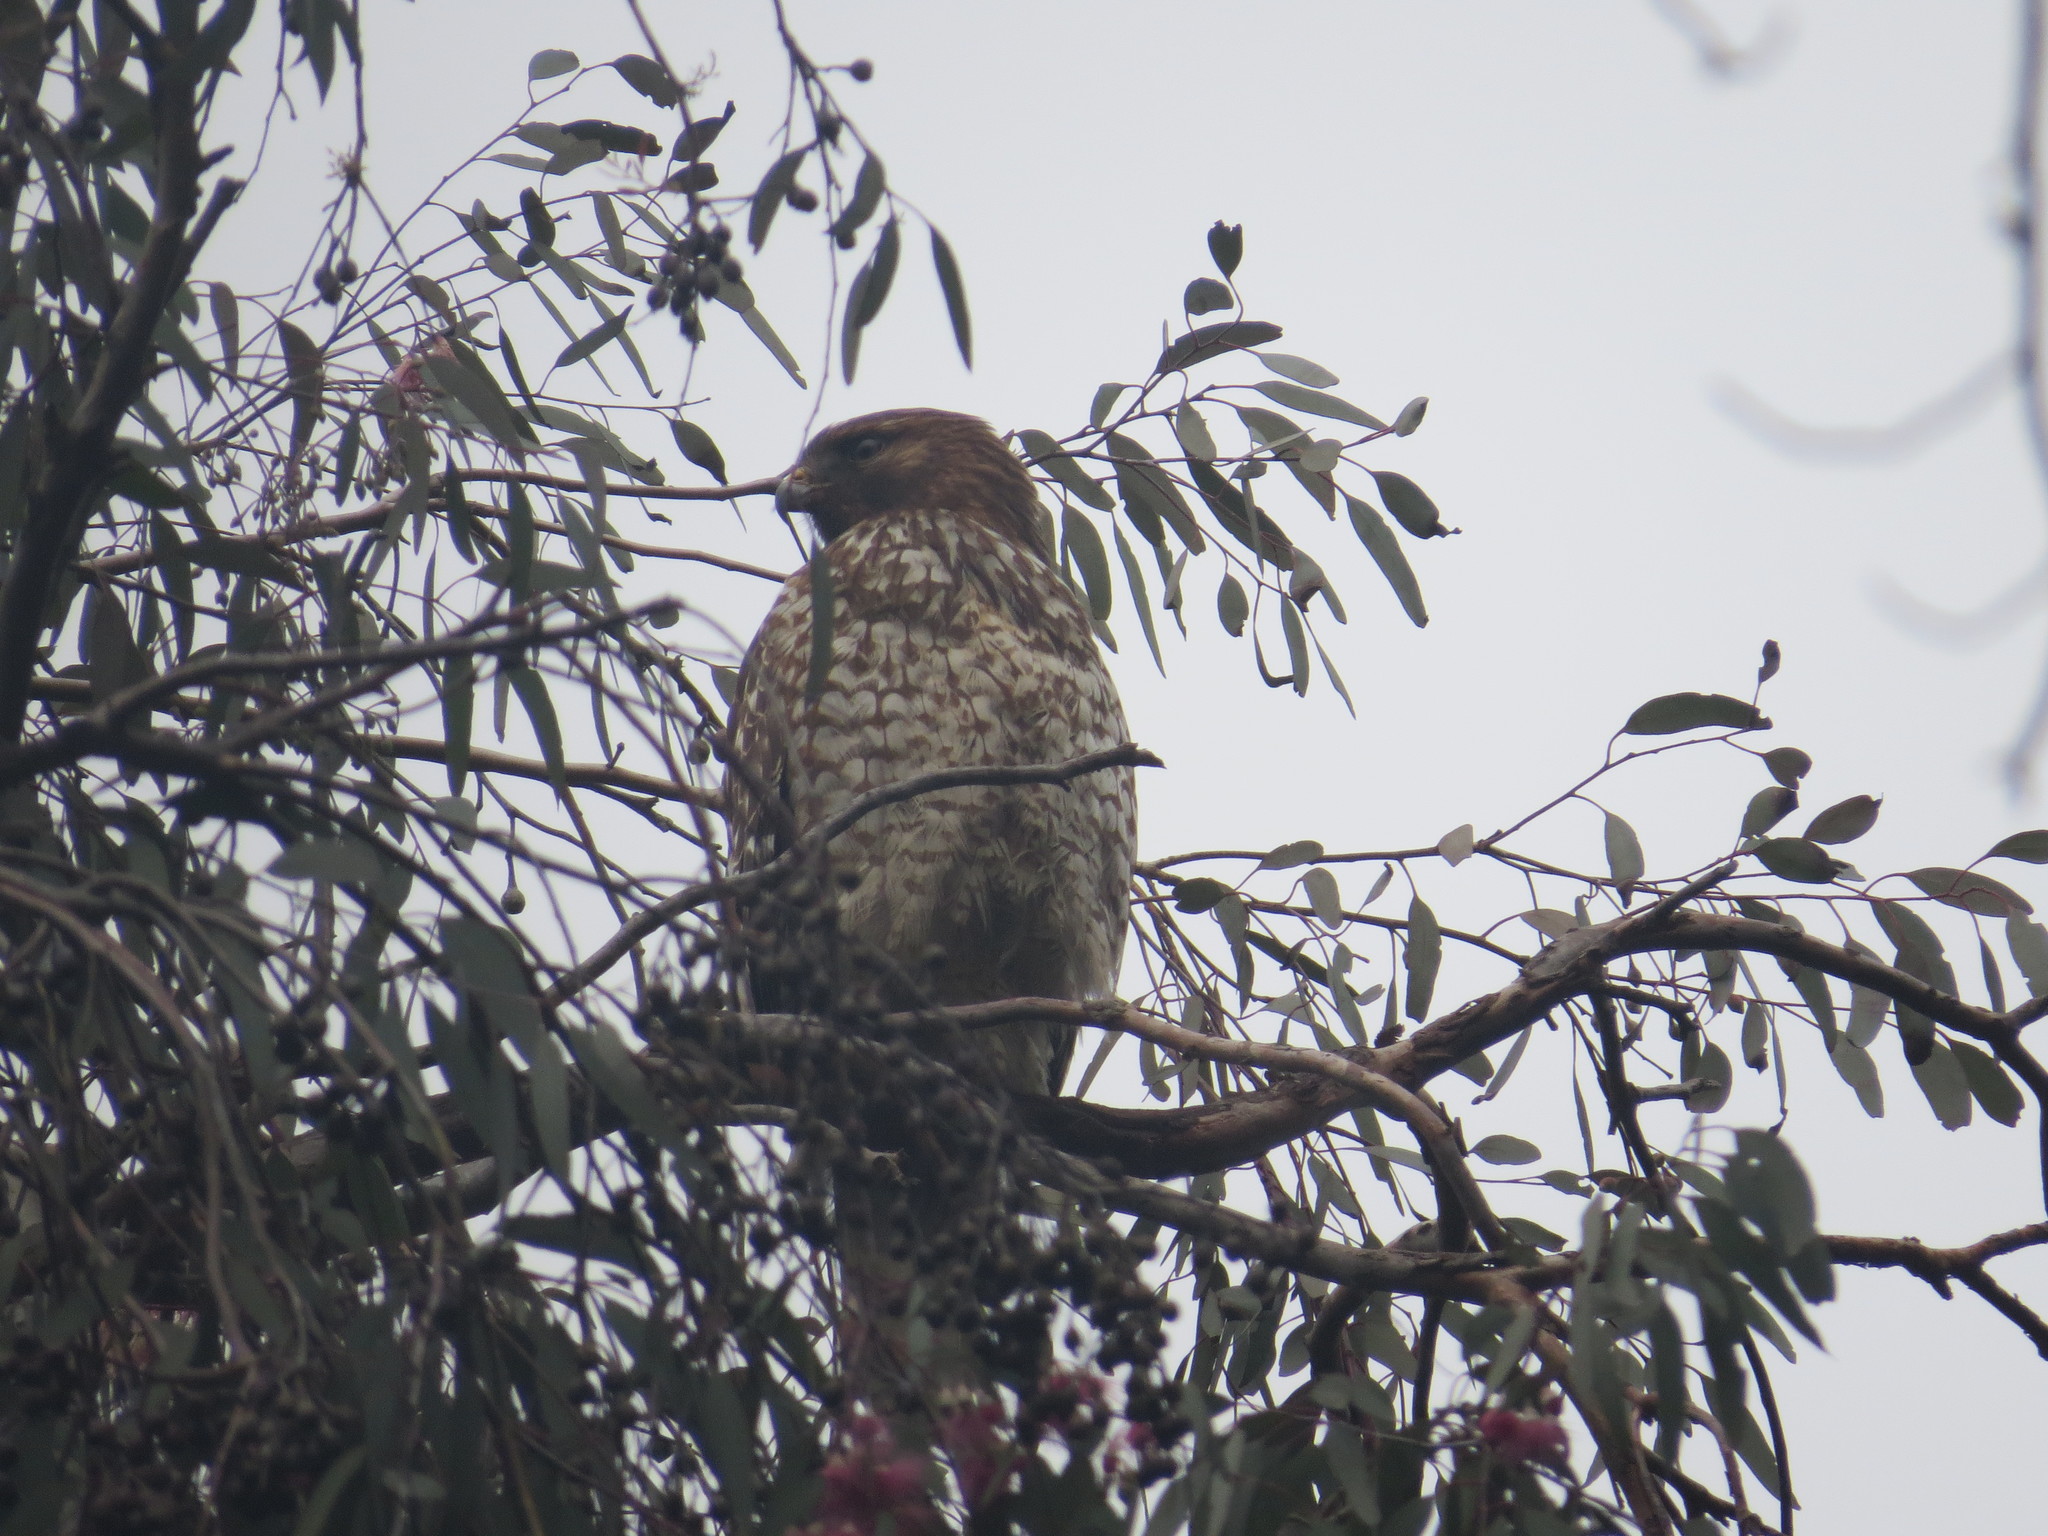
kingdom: Animalia
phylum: Chordata
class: Aves
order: Accipitriformes
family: Accipitridae
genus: Buteo
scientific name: Buteo lineatus
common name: Red-shouldered hawk
